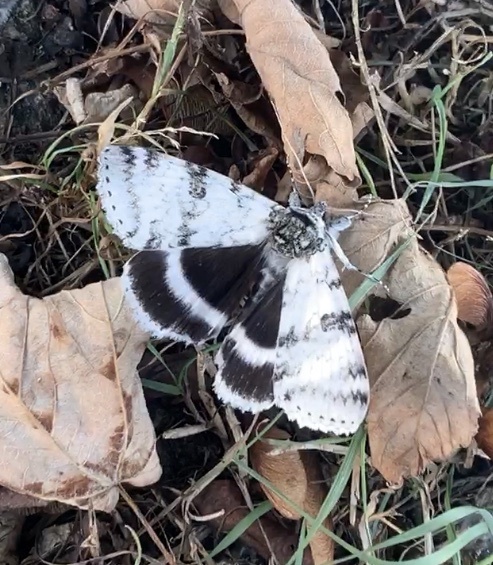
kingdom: Animalia
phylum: Arthropoda
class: Insecta
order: Lepidoptera
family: Erebidae
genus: Catocala
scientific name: Catocala relicta
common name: White underwing
